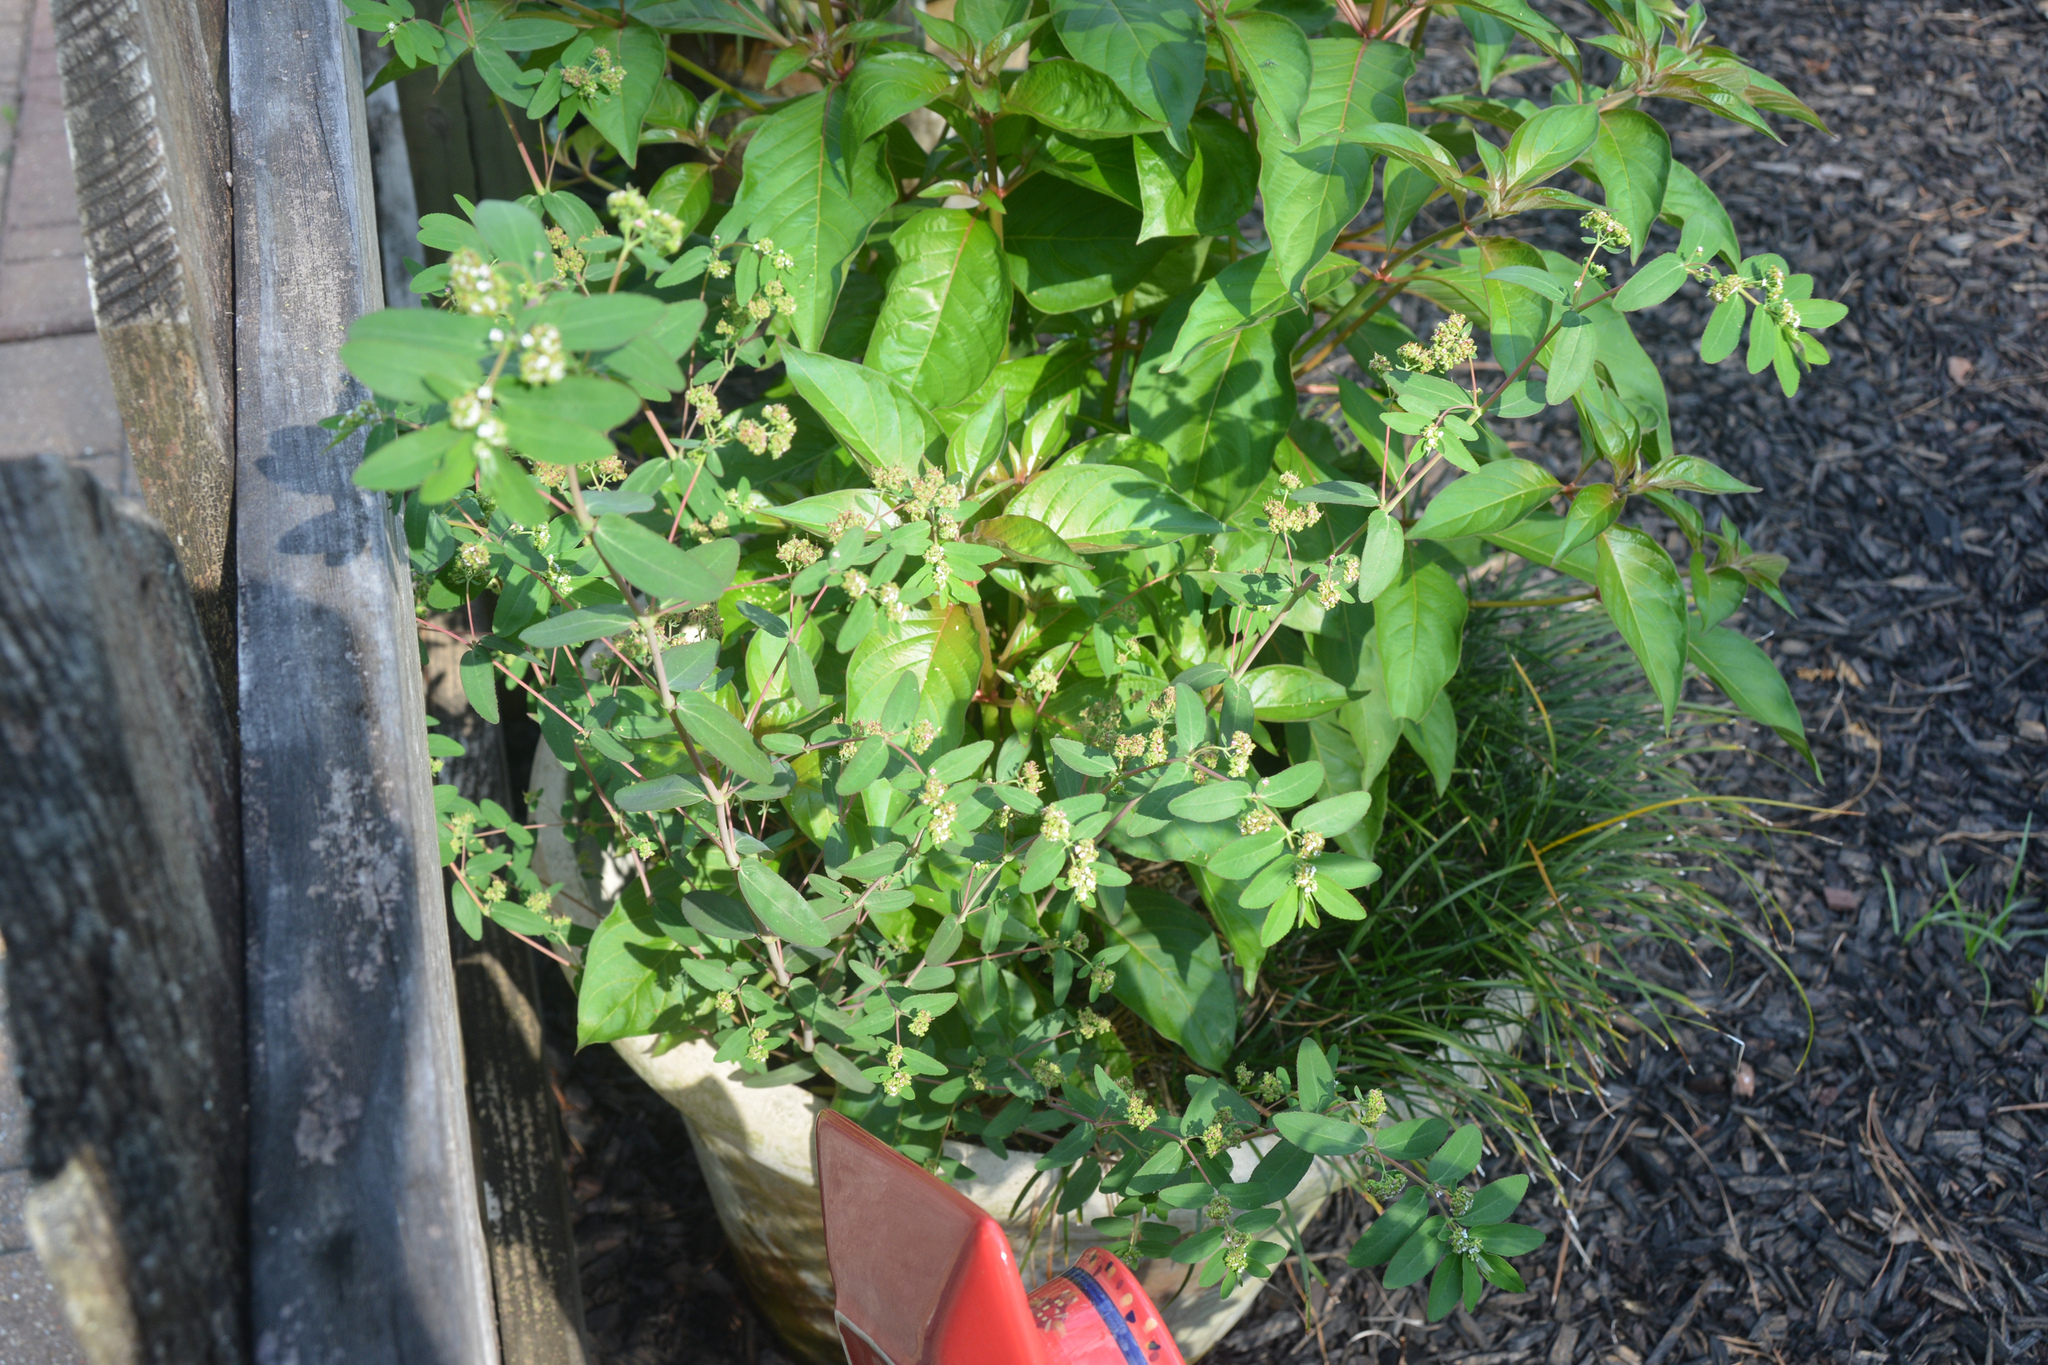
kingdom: Plantae
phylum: Tracheophyta
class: Magnoliopsida
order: Malpighiales
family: Euphorbiaceae
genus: Euphorbia
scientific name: Euphorbia hypericifolia
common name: Graceful sandmat
